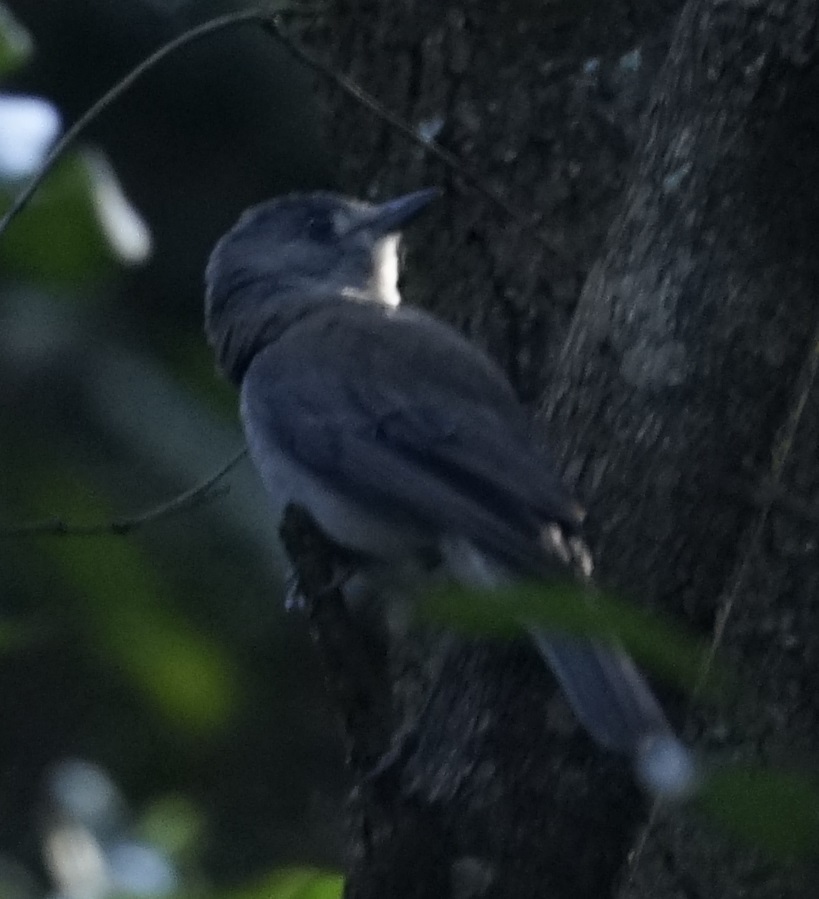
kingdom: Animalia
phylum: Chordata
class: Aves
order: Passeriformes
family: Pachycephalidae
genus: Colluricincla
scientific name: Colluricincla harmonica
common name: Grey shrikethrush
